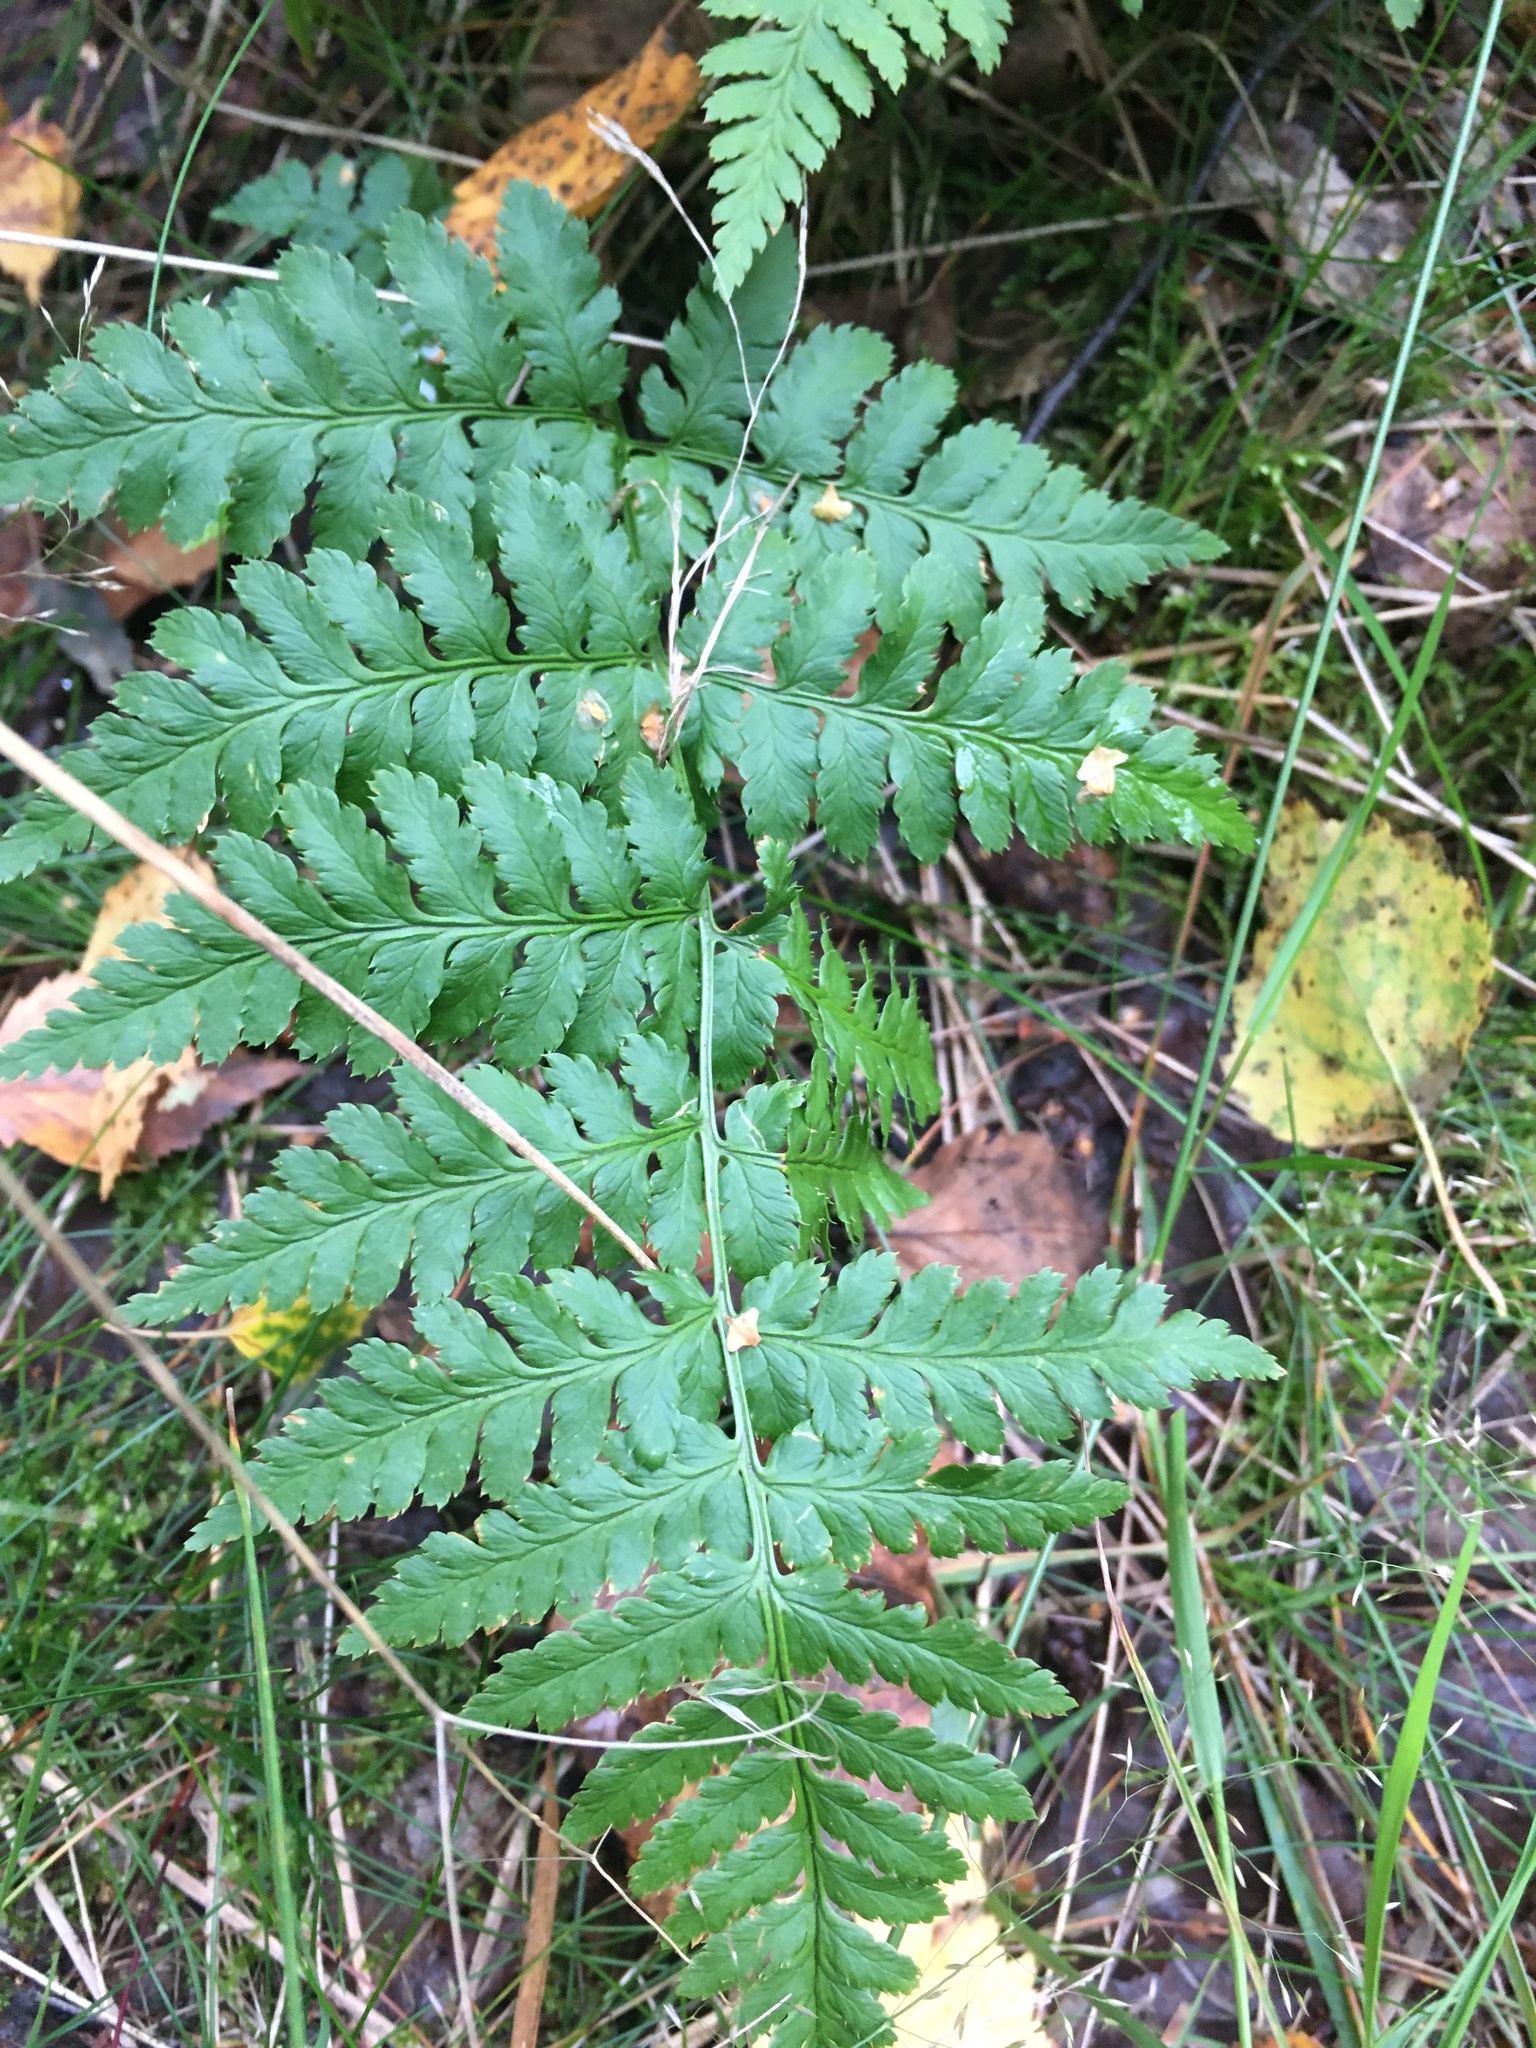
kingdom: Plantae
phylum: Tracheophyta
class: Polypodiopsida
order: Polypodiales
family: Dryopteridaceae
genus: Dryopteris
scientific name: Dryopteris carthusiana
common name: Narrow buckler-fern
